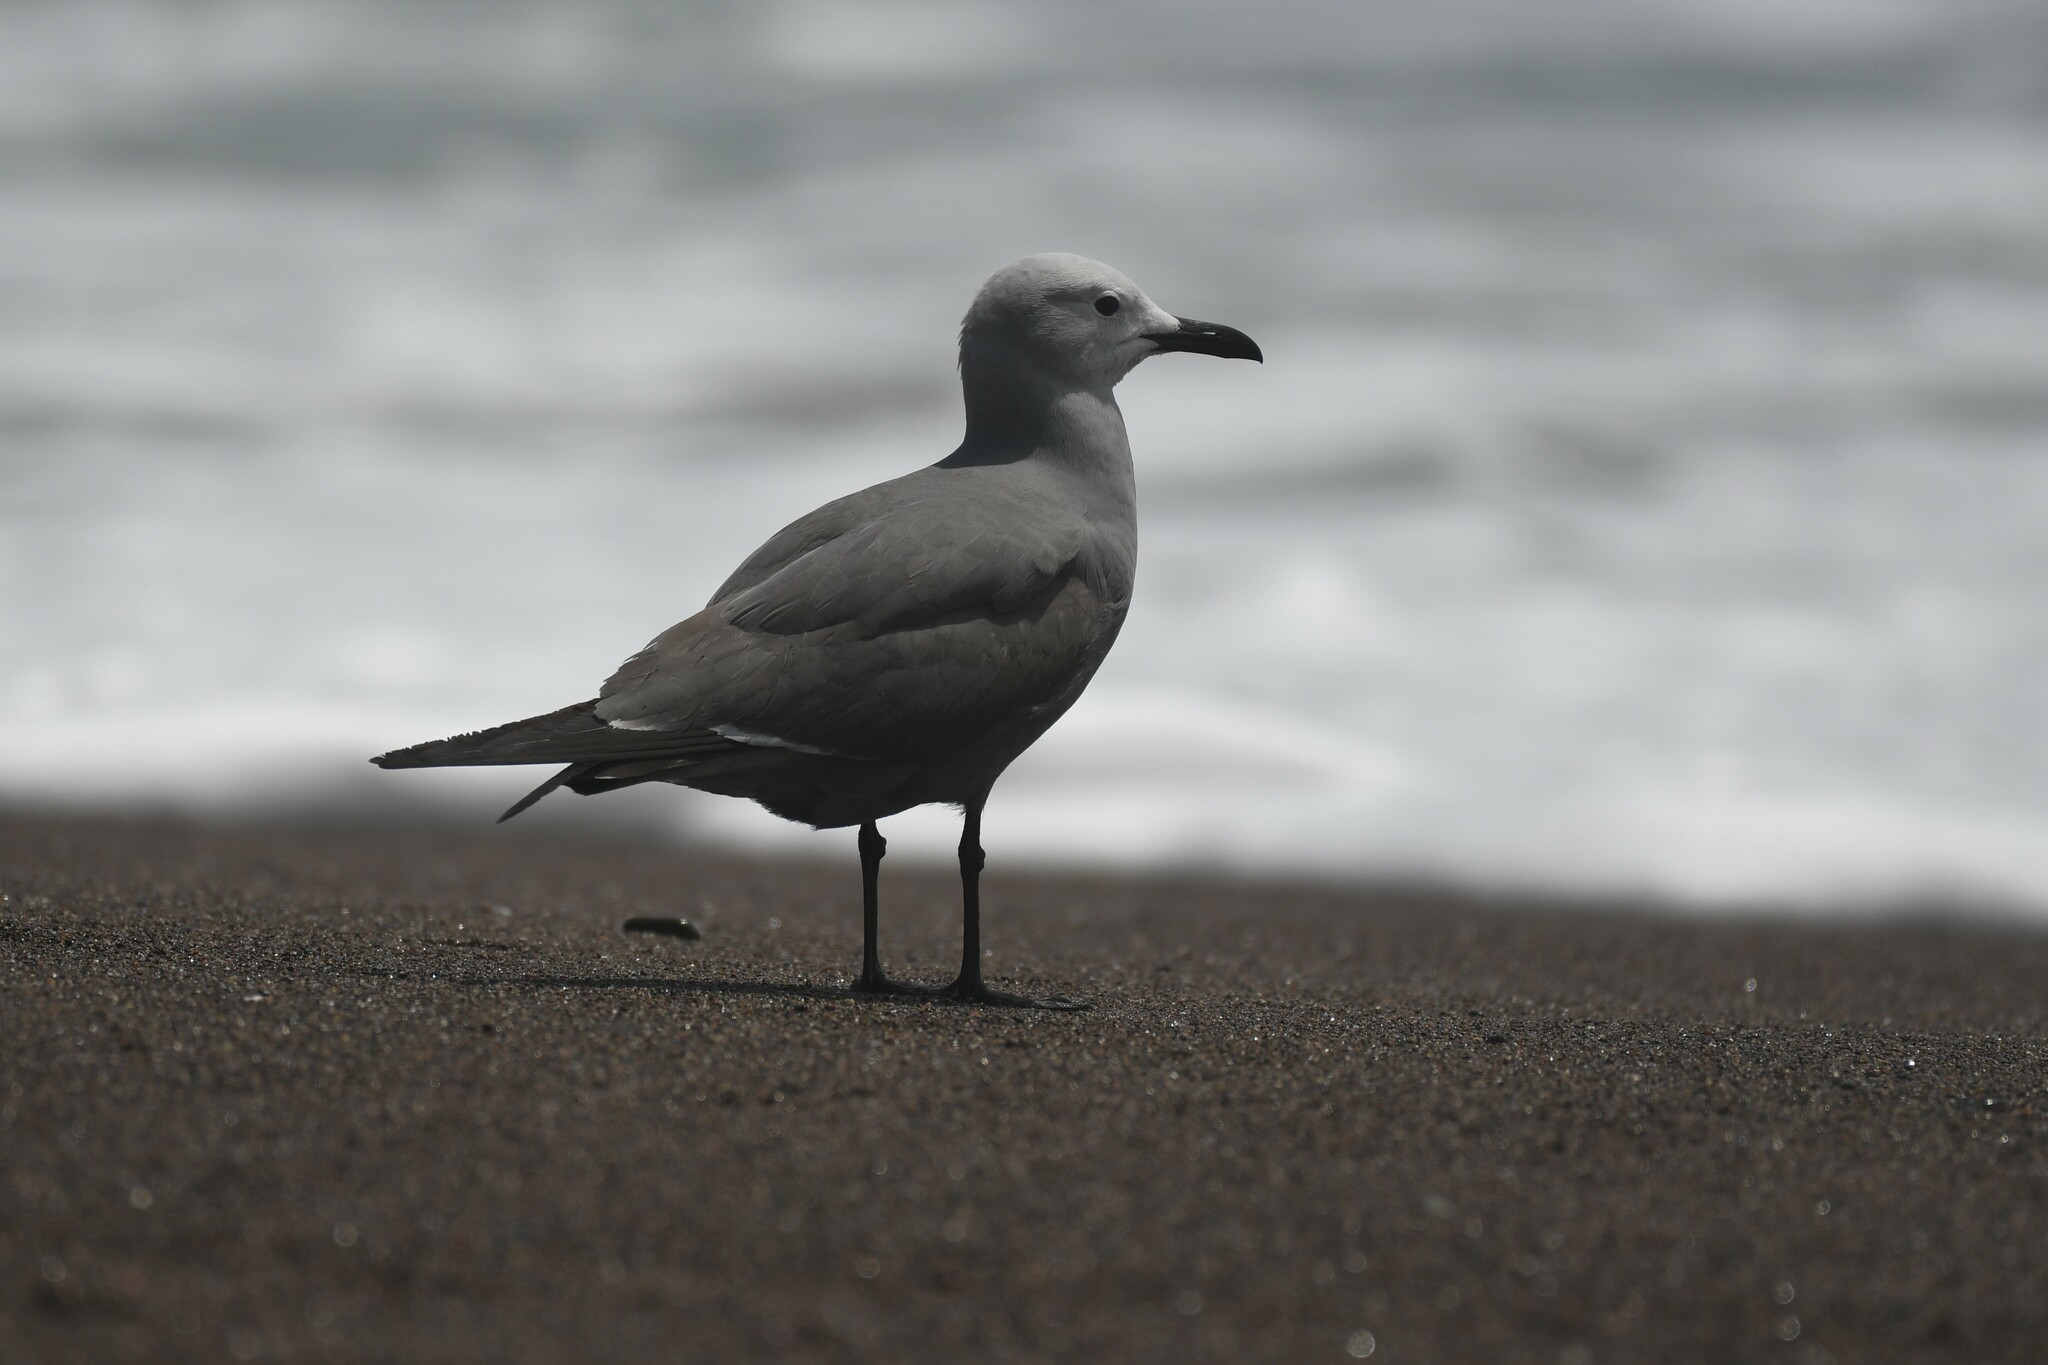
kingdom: Animalia
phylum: Chordata
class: Aves
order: Charadriiformes
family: Laridae
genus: Leucophaeus
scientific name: Leucophaeus modestus
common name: Gray gull
